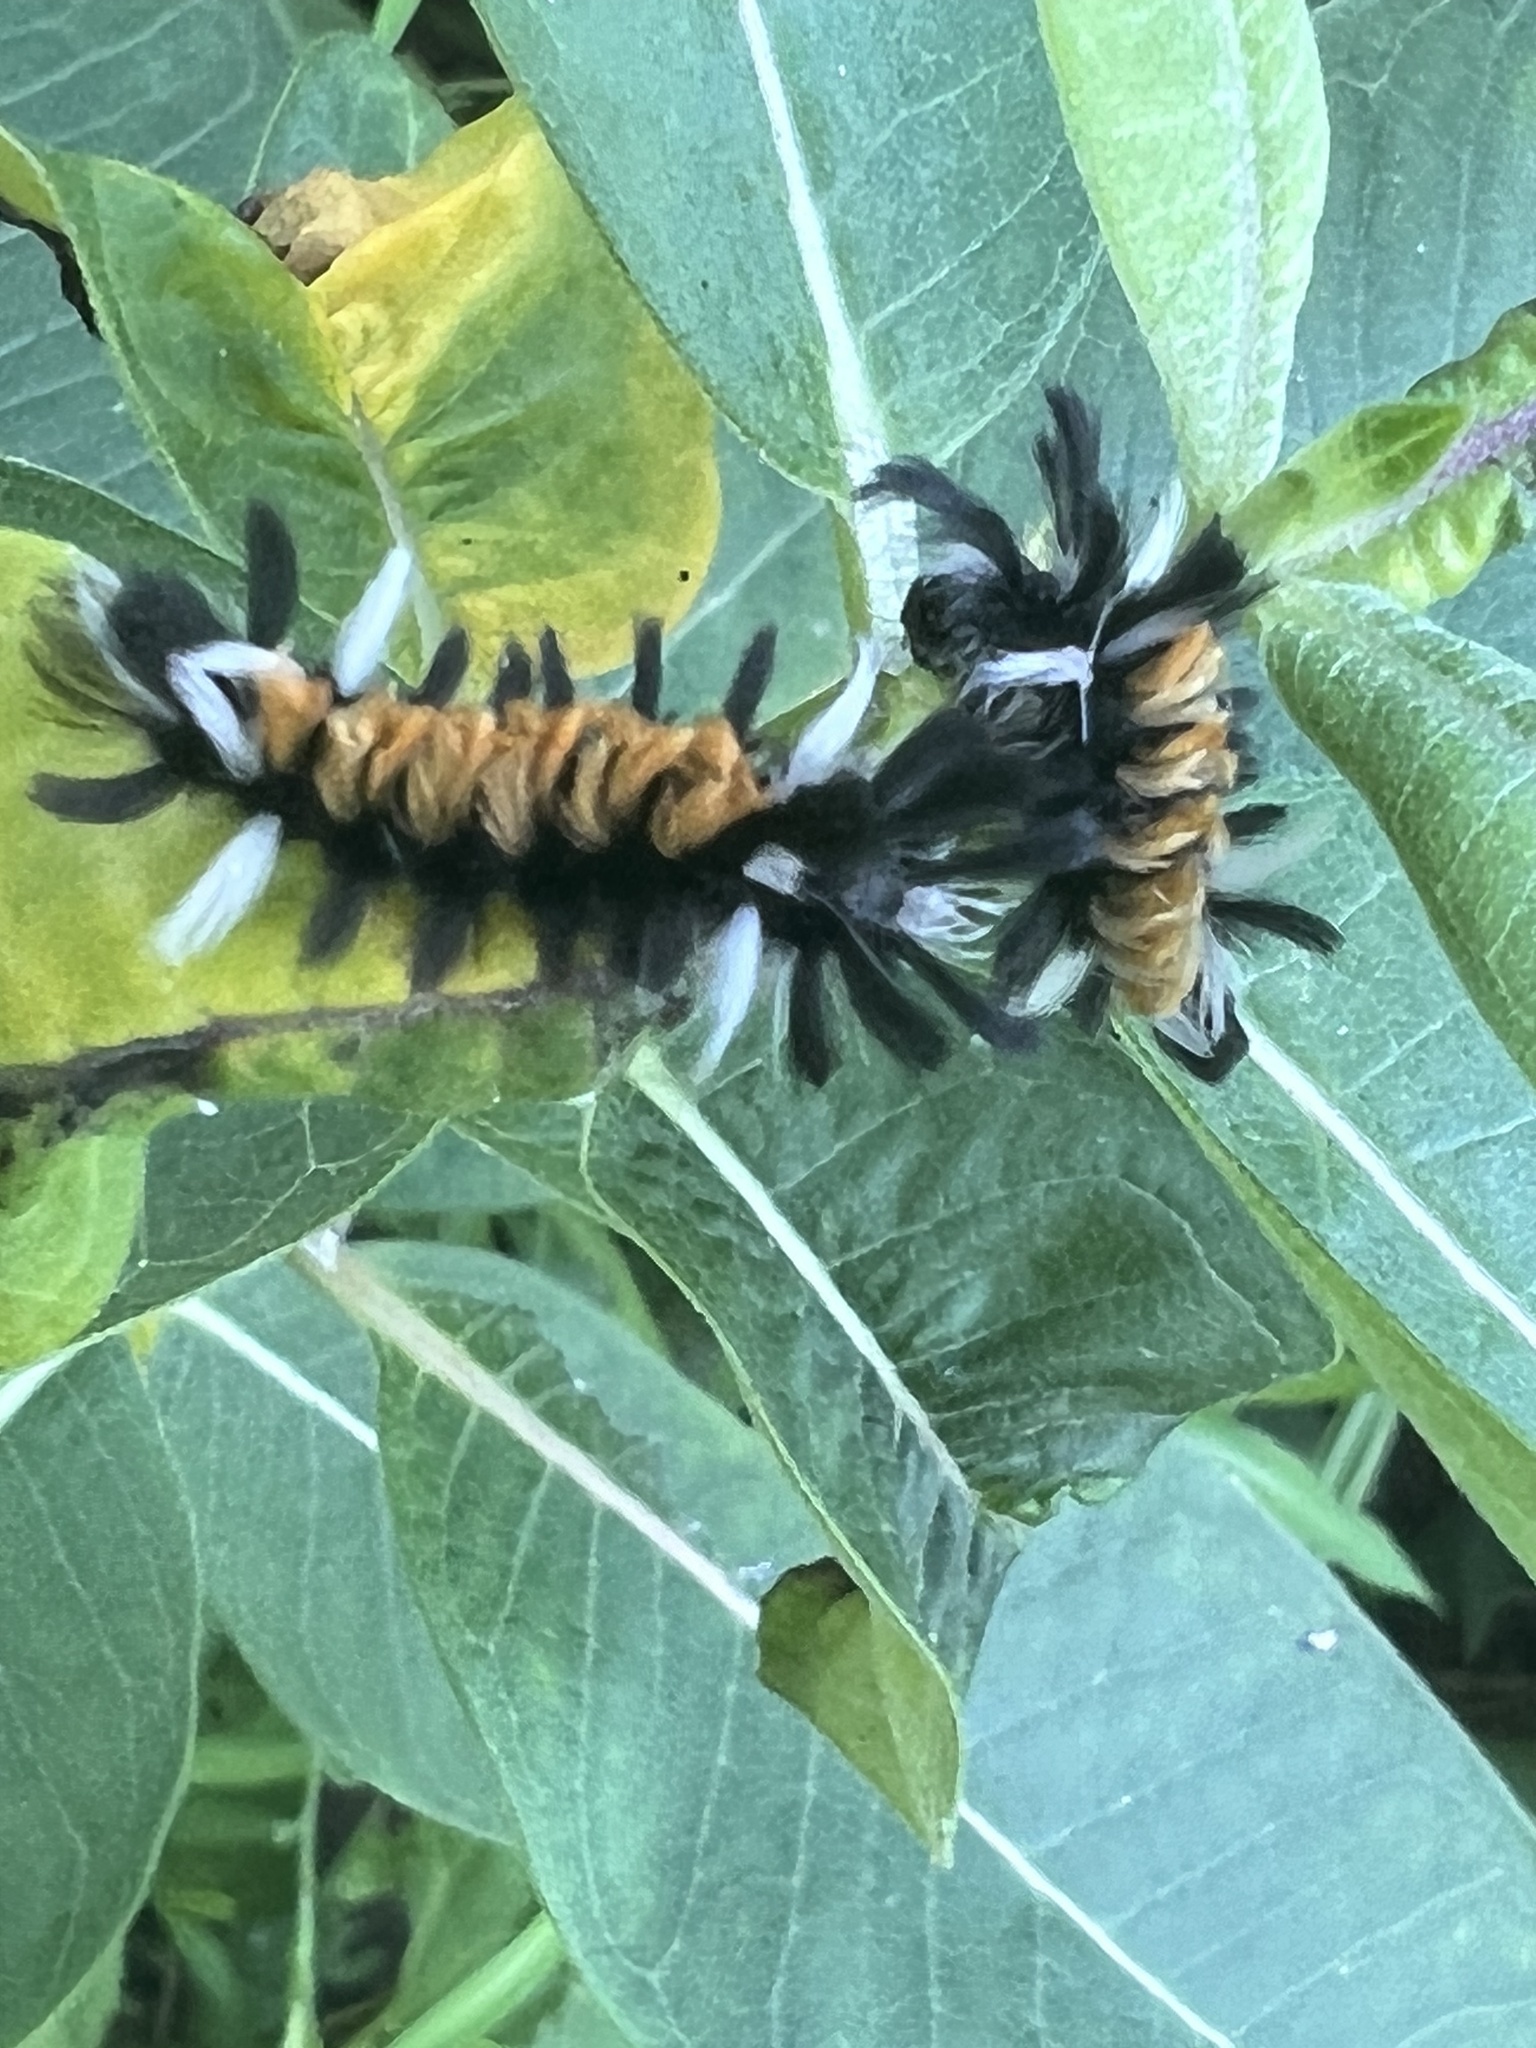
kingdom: Animalia
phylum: Arthropoda
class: Insecta
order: Lepidoptera
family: Erebidae
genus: Euchaetes
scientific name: Euchaetes egle
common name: Milkweed tussock moth
